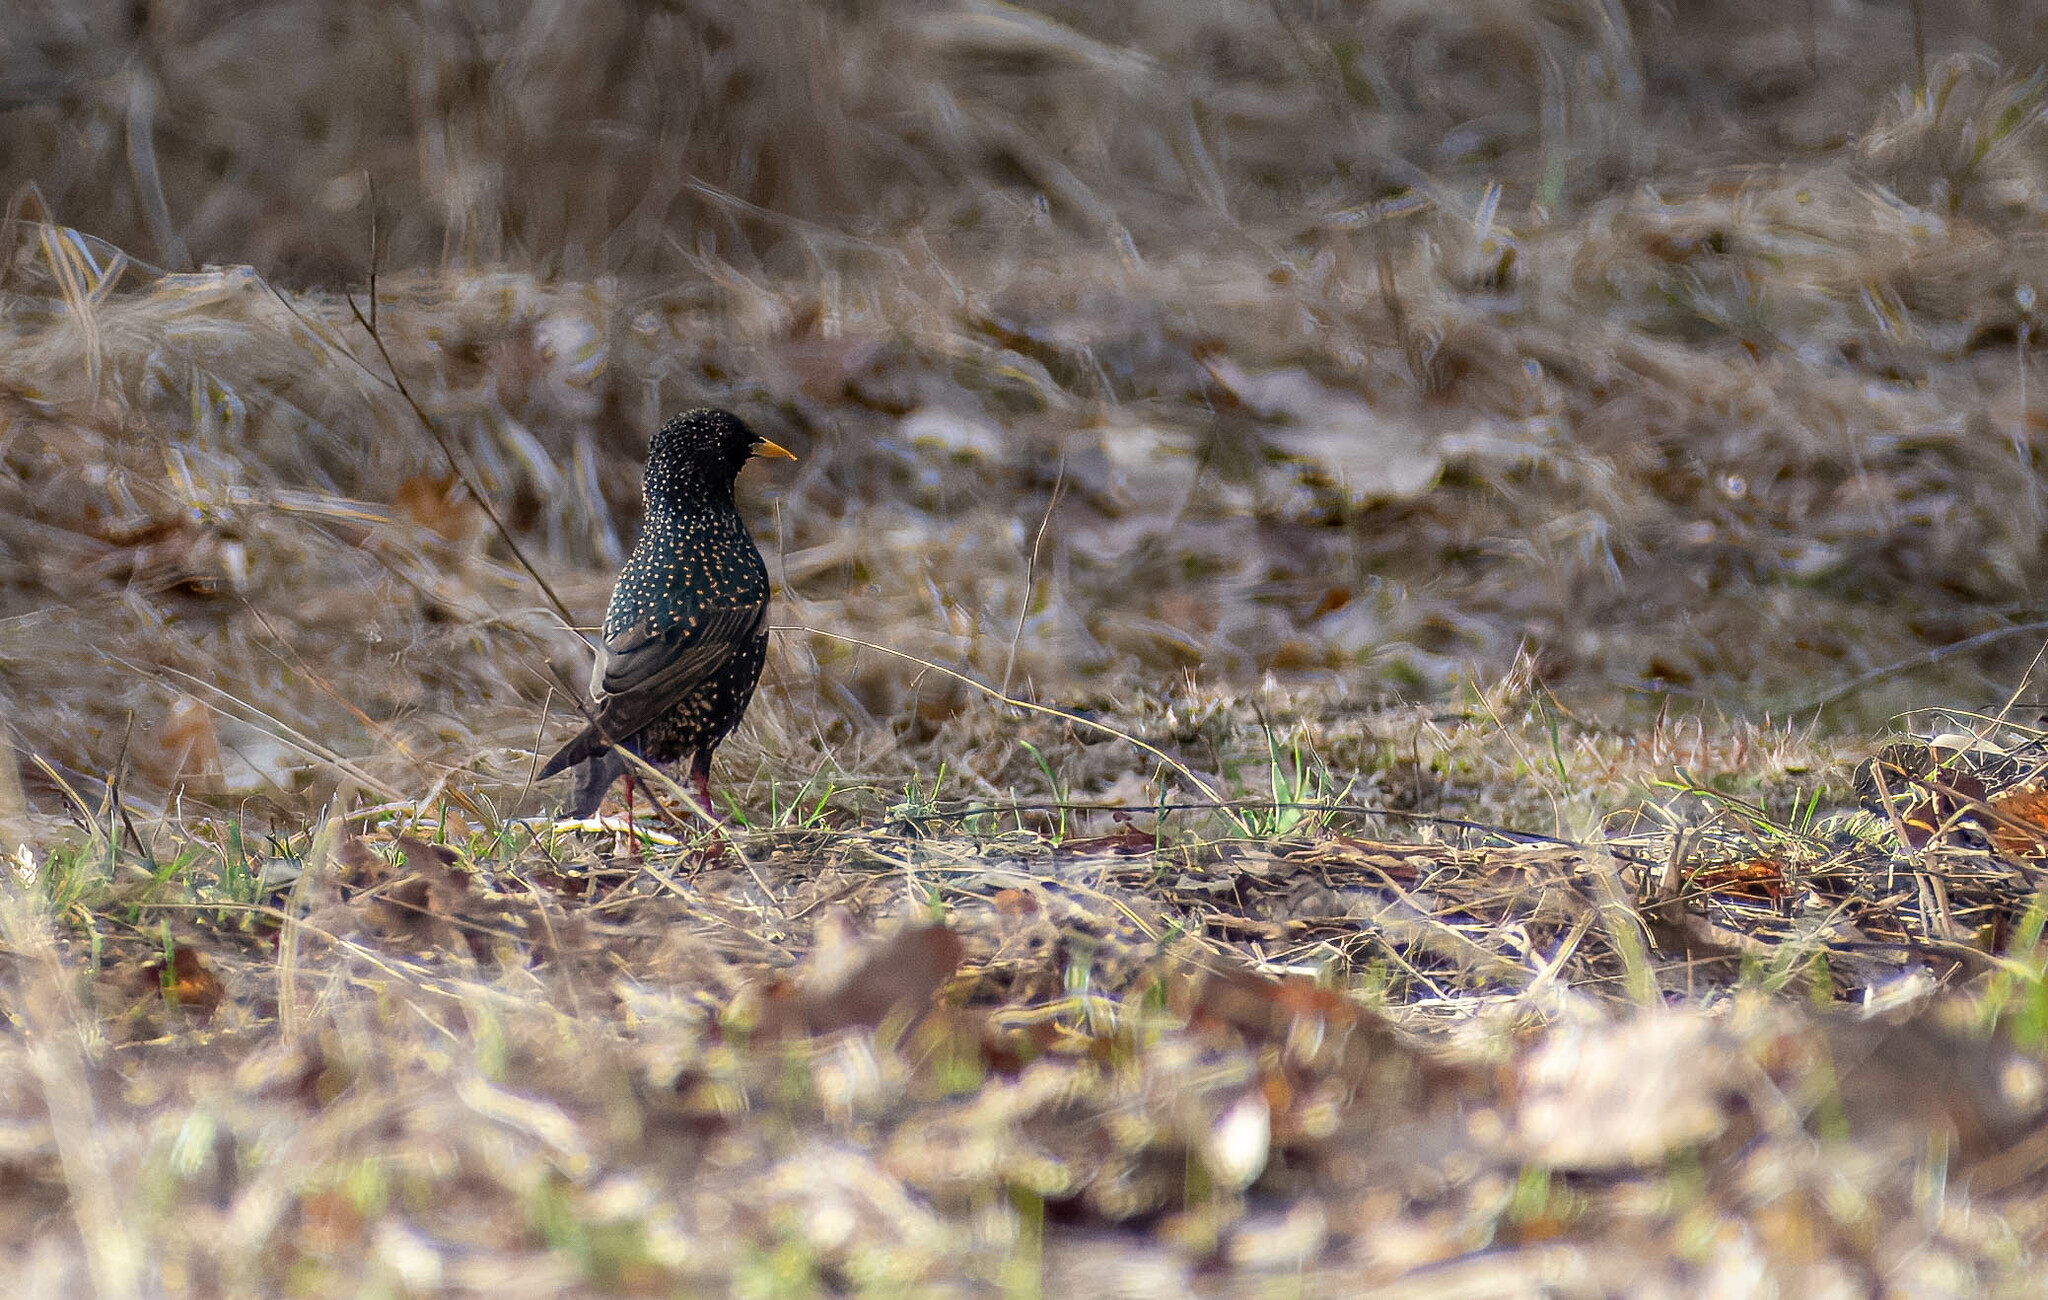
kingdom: Animalia
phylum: Chordata
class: Aves
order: Passeriformes
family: Sturnidae
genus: Sturnus
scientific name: Sturnus vulgaris
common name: Common starling
